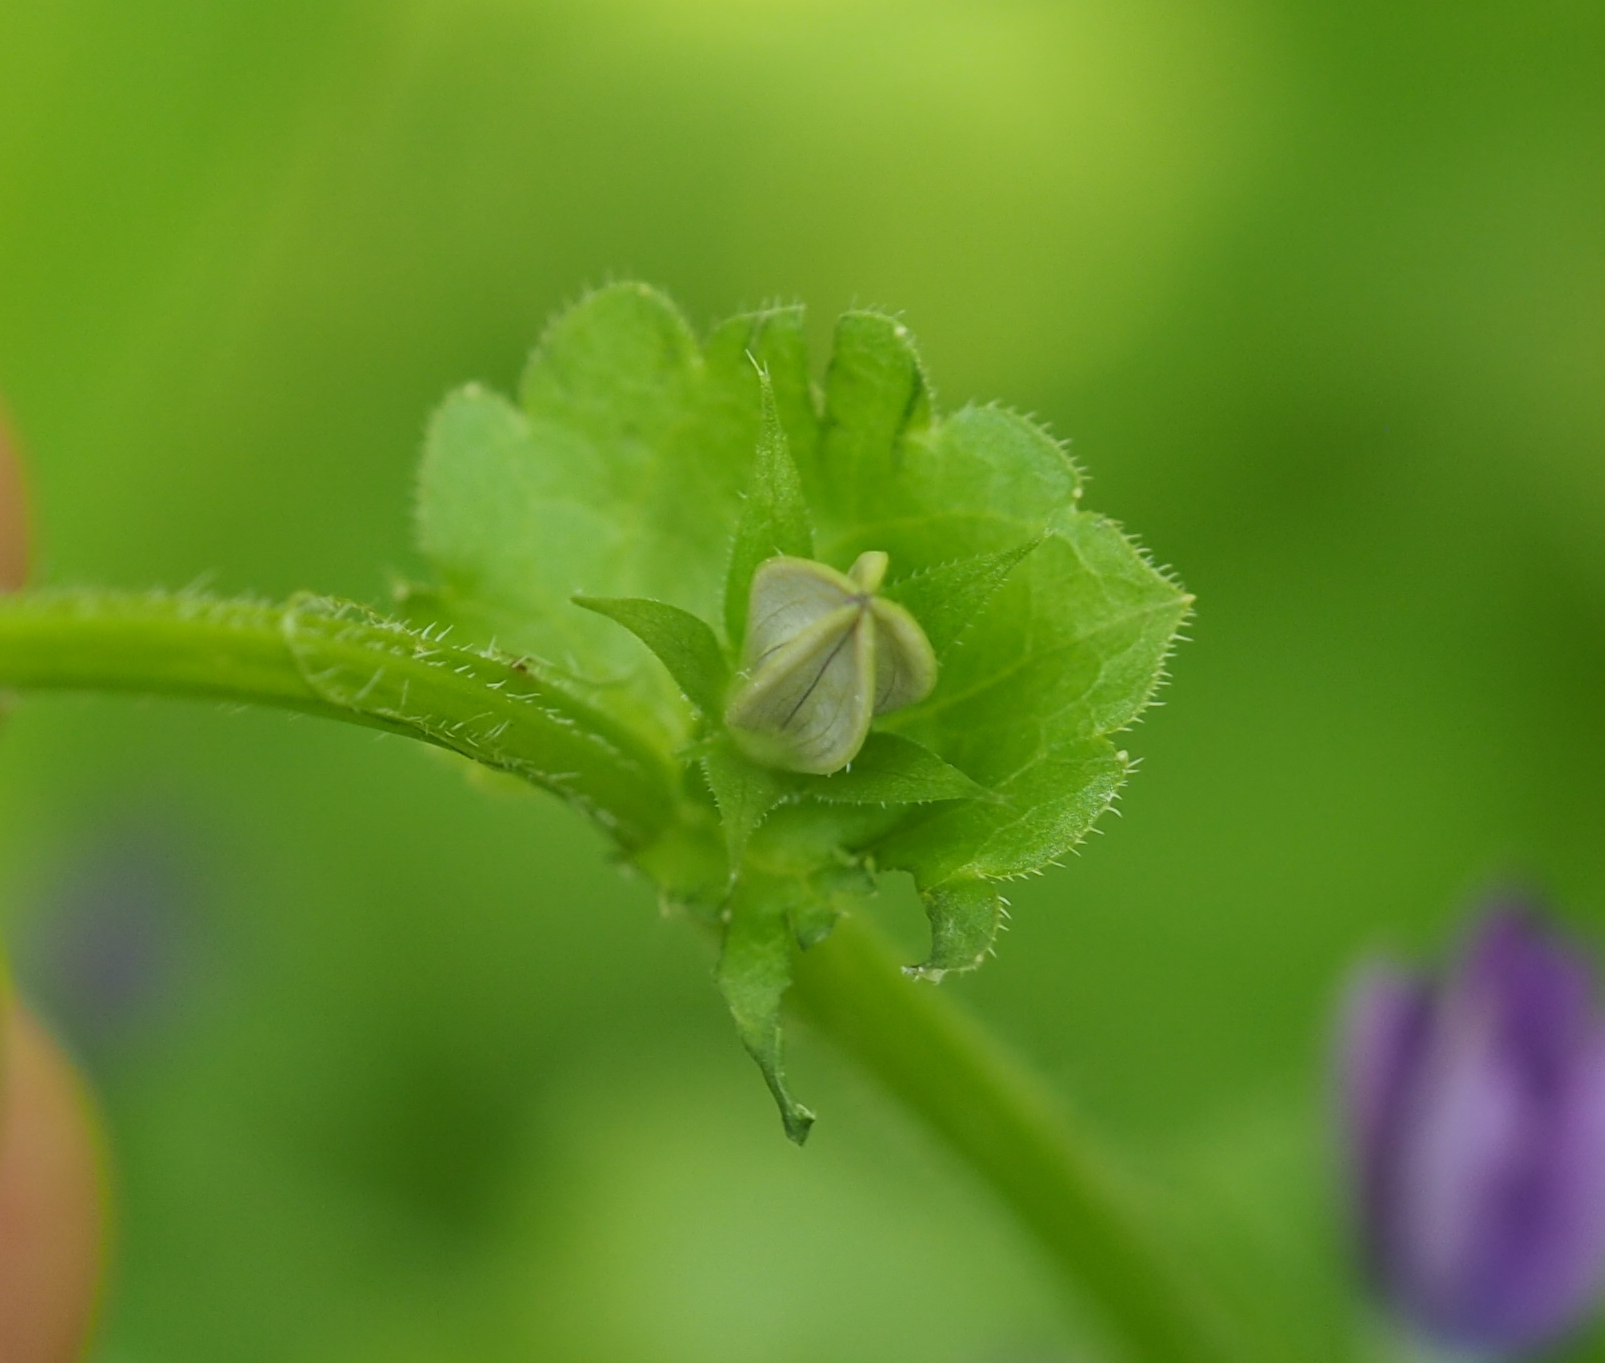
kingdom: Plantae
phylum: Tracheophyta
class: Magnoliopsida
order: Asterales
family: Campanulaceae
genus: Triodanis
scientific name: Triodanis perfoliata
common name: Clasping venus' looking-glass
